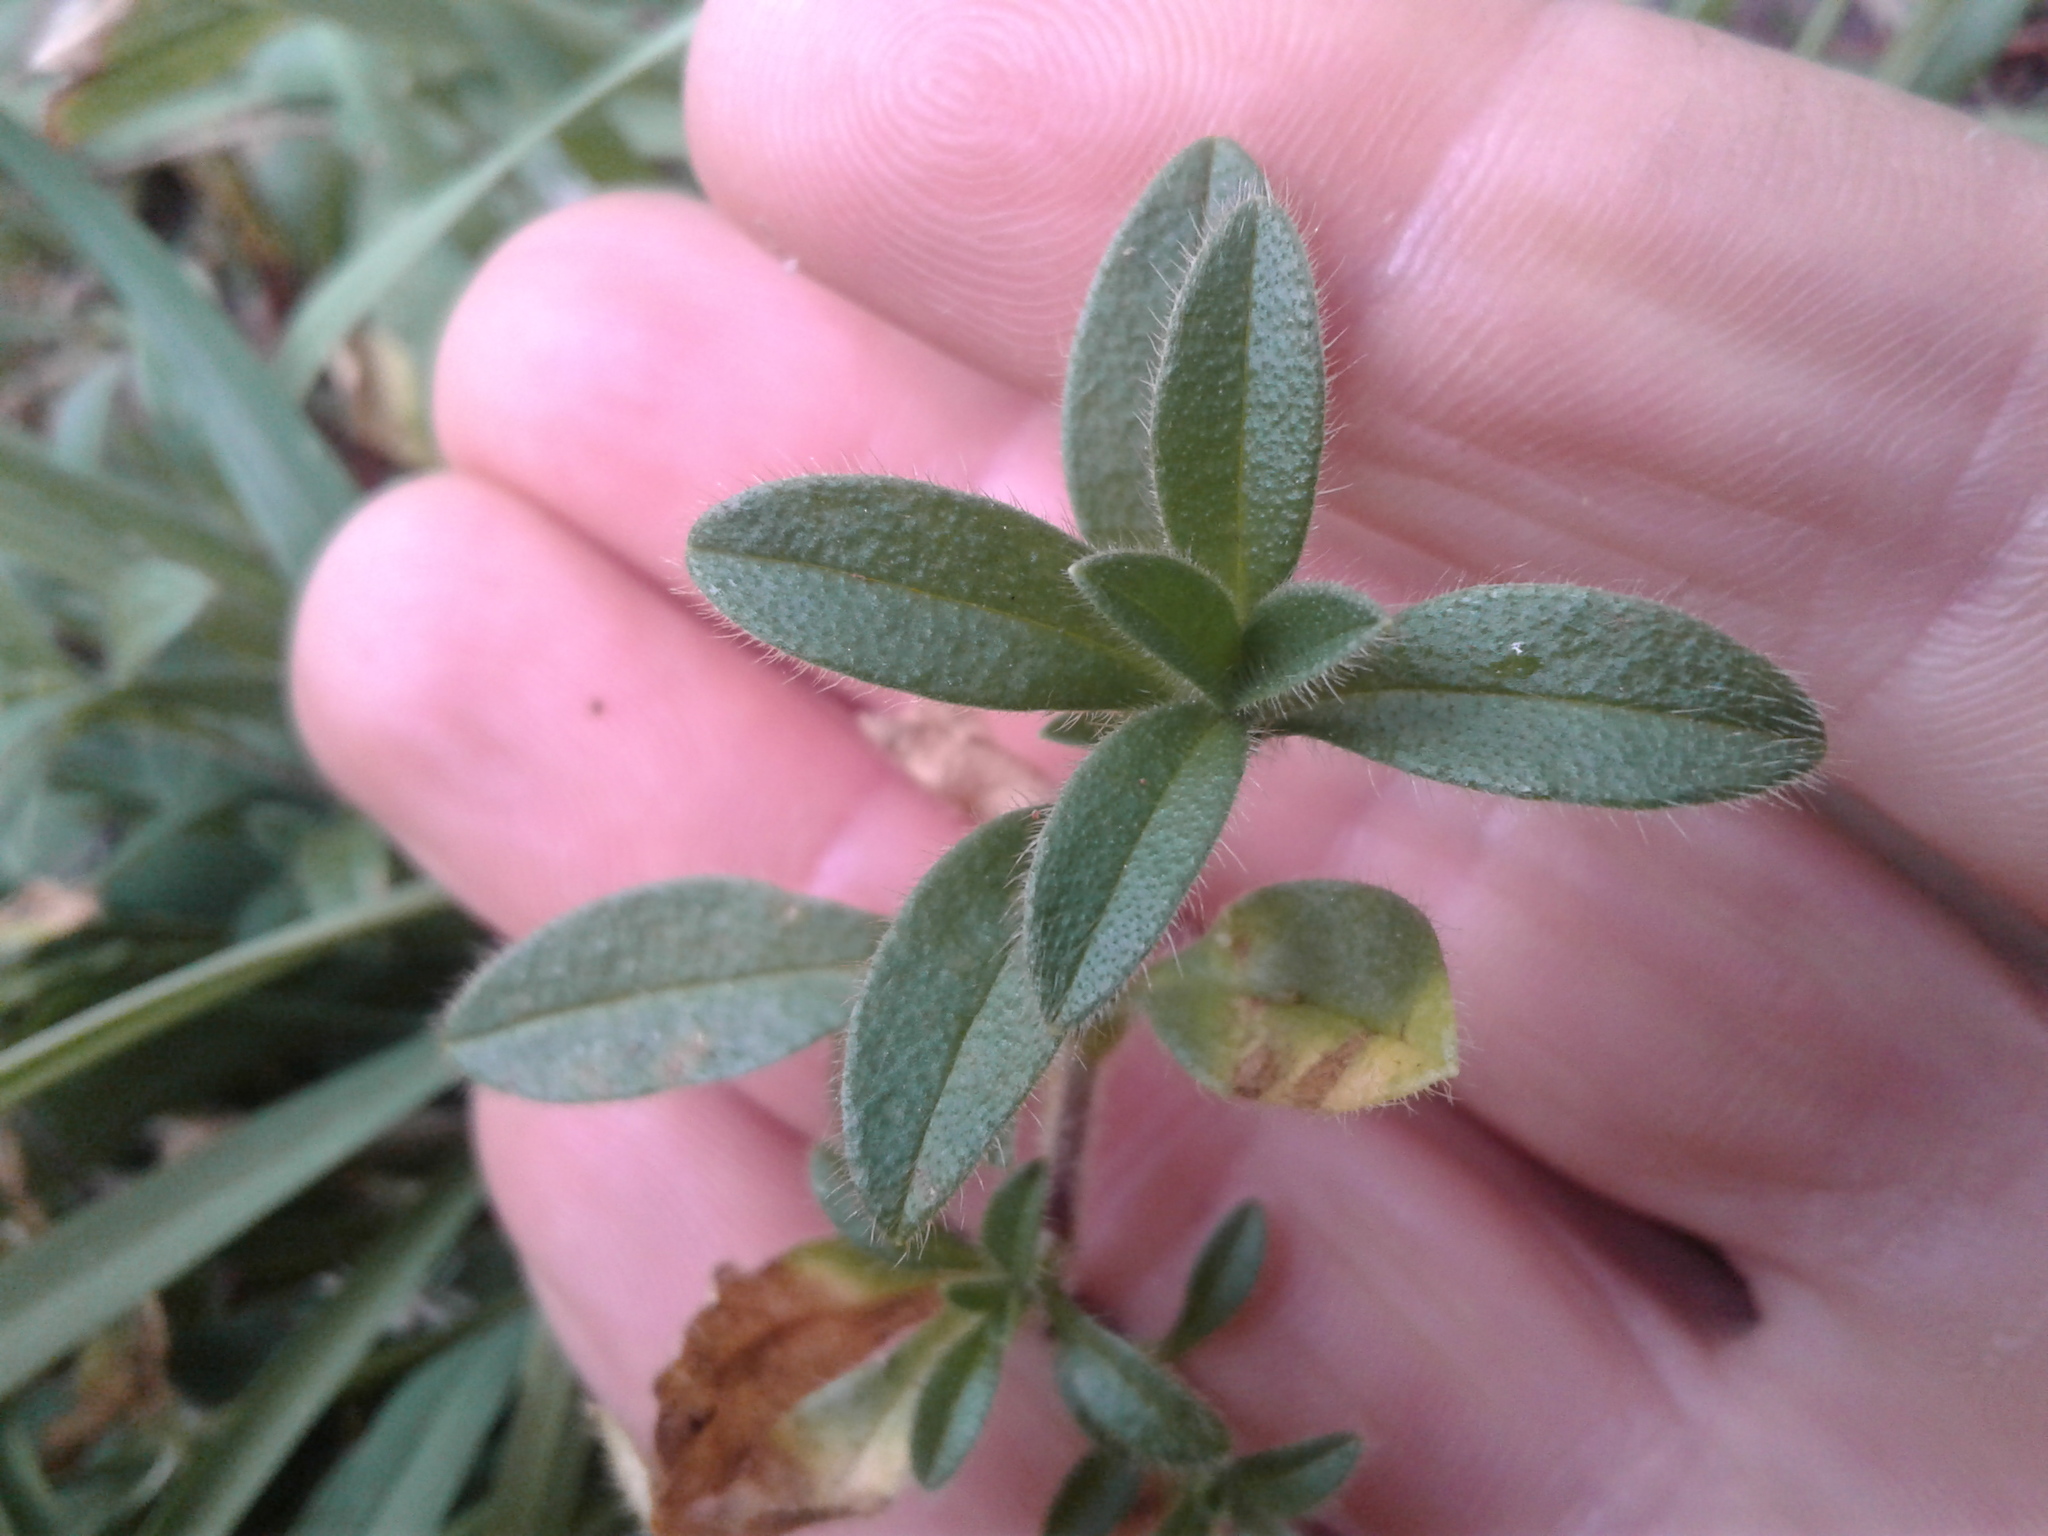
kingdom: Plantae
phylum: Tracheophyta
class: Magnoliopsida
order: Caryophyllales
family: Caryophyllaceae
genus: Cerastium
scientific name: Cerastium fontanum
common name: Common mouse-ear
